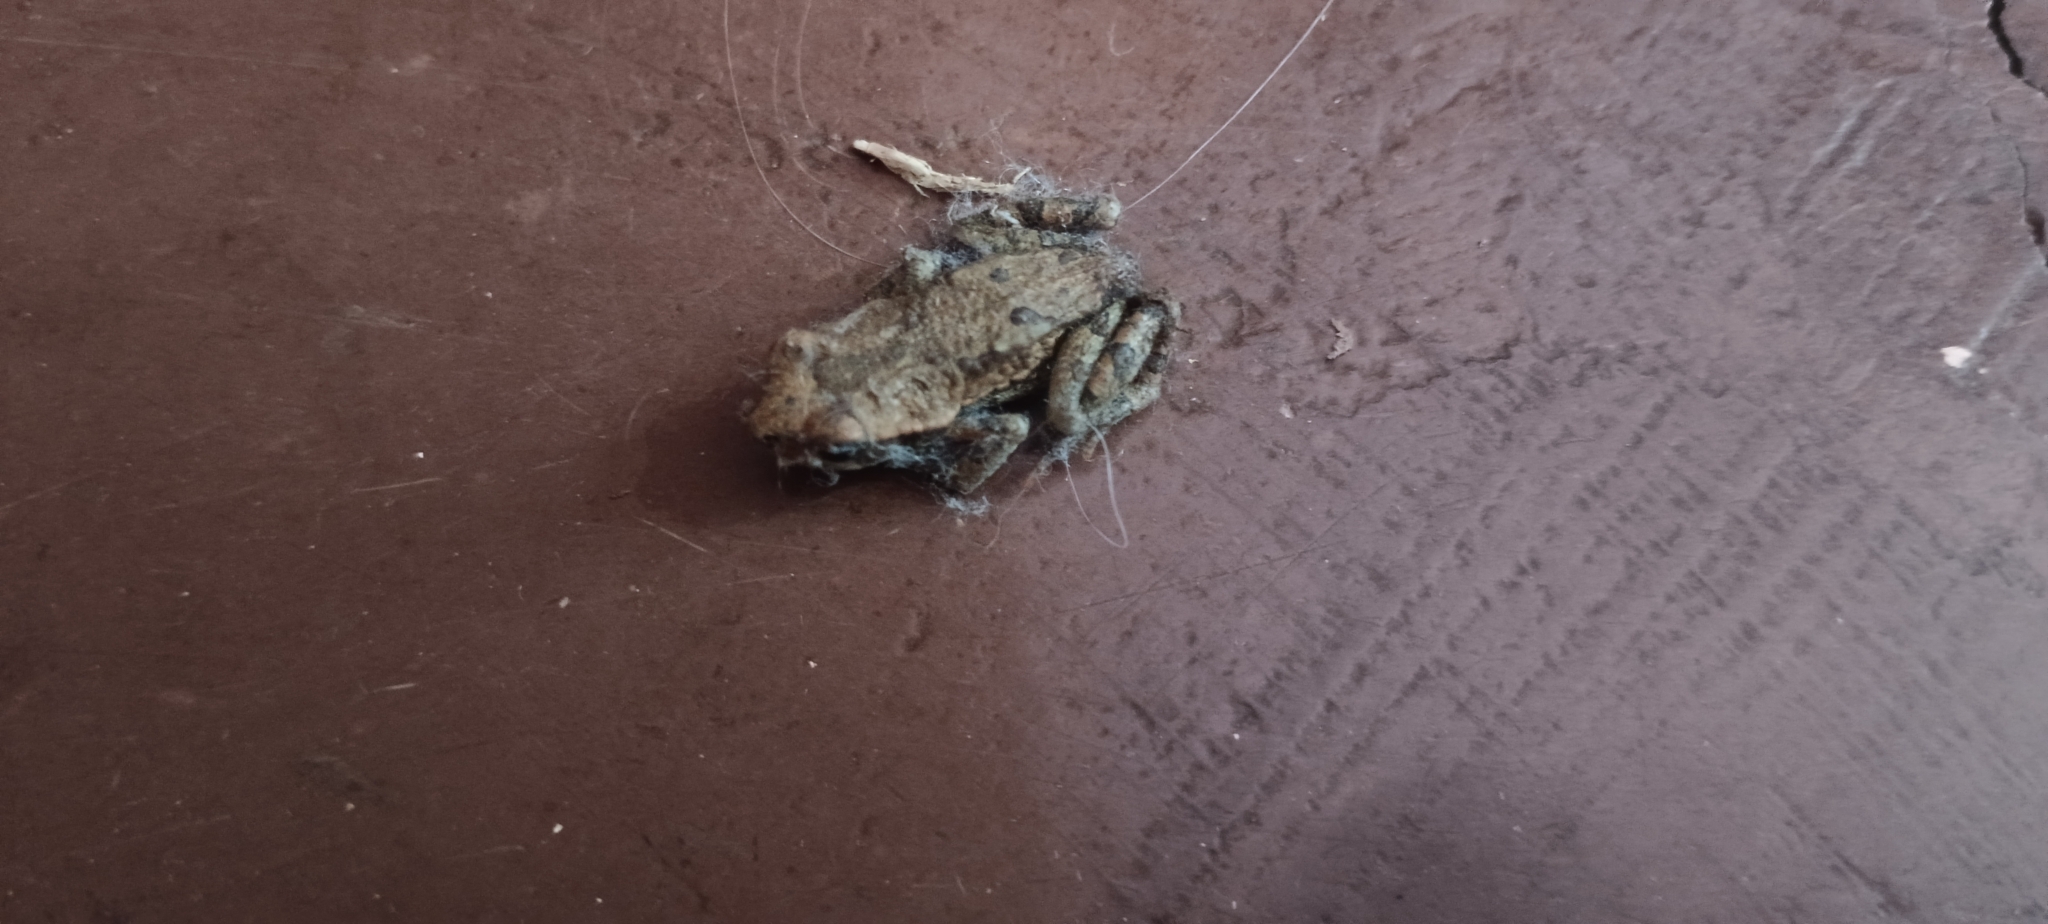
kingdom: Animalia
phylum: Chordata
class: Amphibia
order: Anura
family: Bufonidae
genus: Schismaderma
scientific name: Schismaderma carens
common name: African split-skin toad
